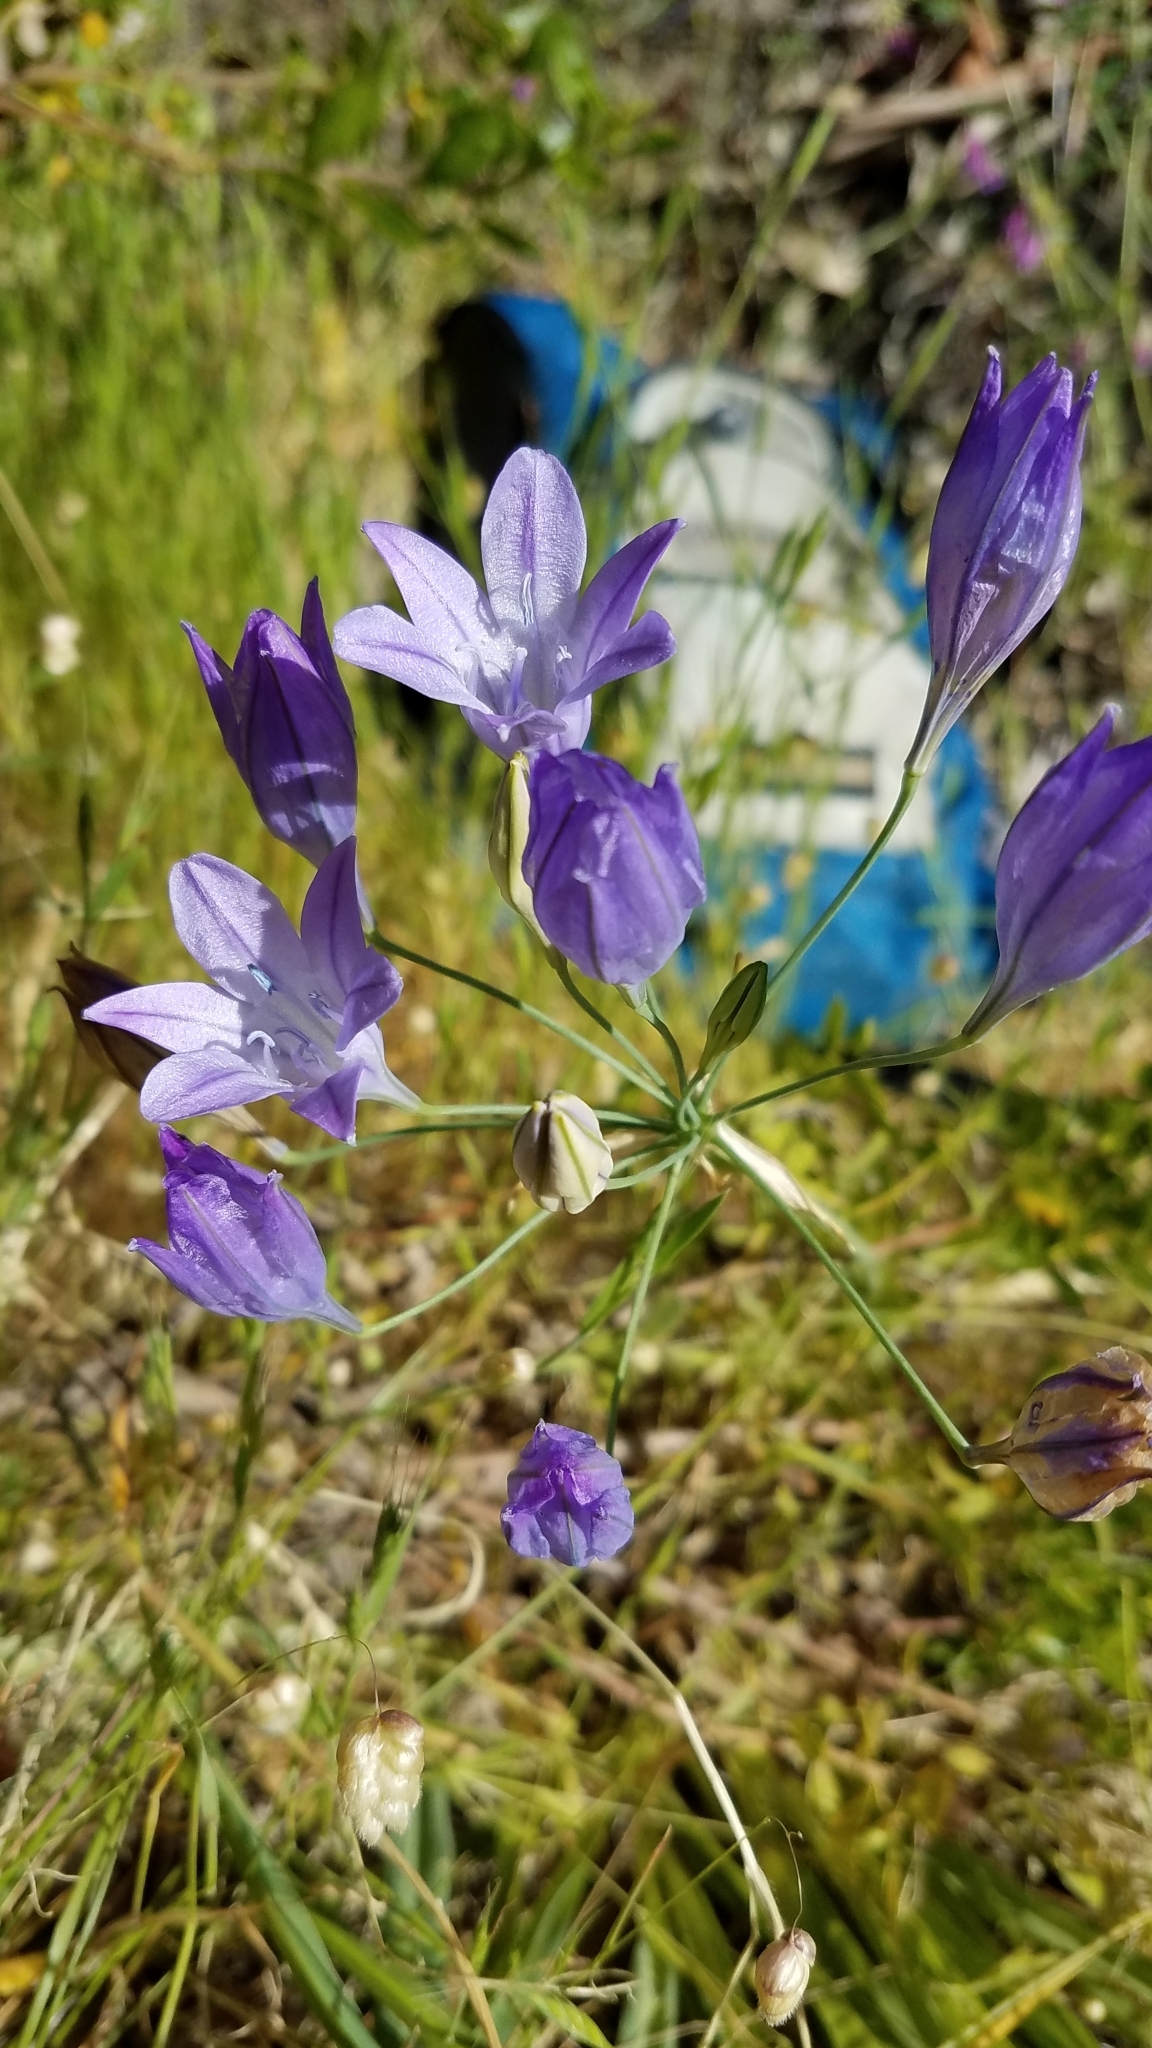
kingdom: Plantae
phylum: Tracheophyta
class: Liliopsida
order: Asparagales
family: Asparagaceae
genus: Triteleia
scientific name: Triteleia laxa
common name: Triplet-lily
